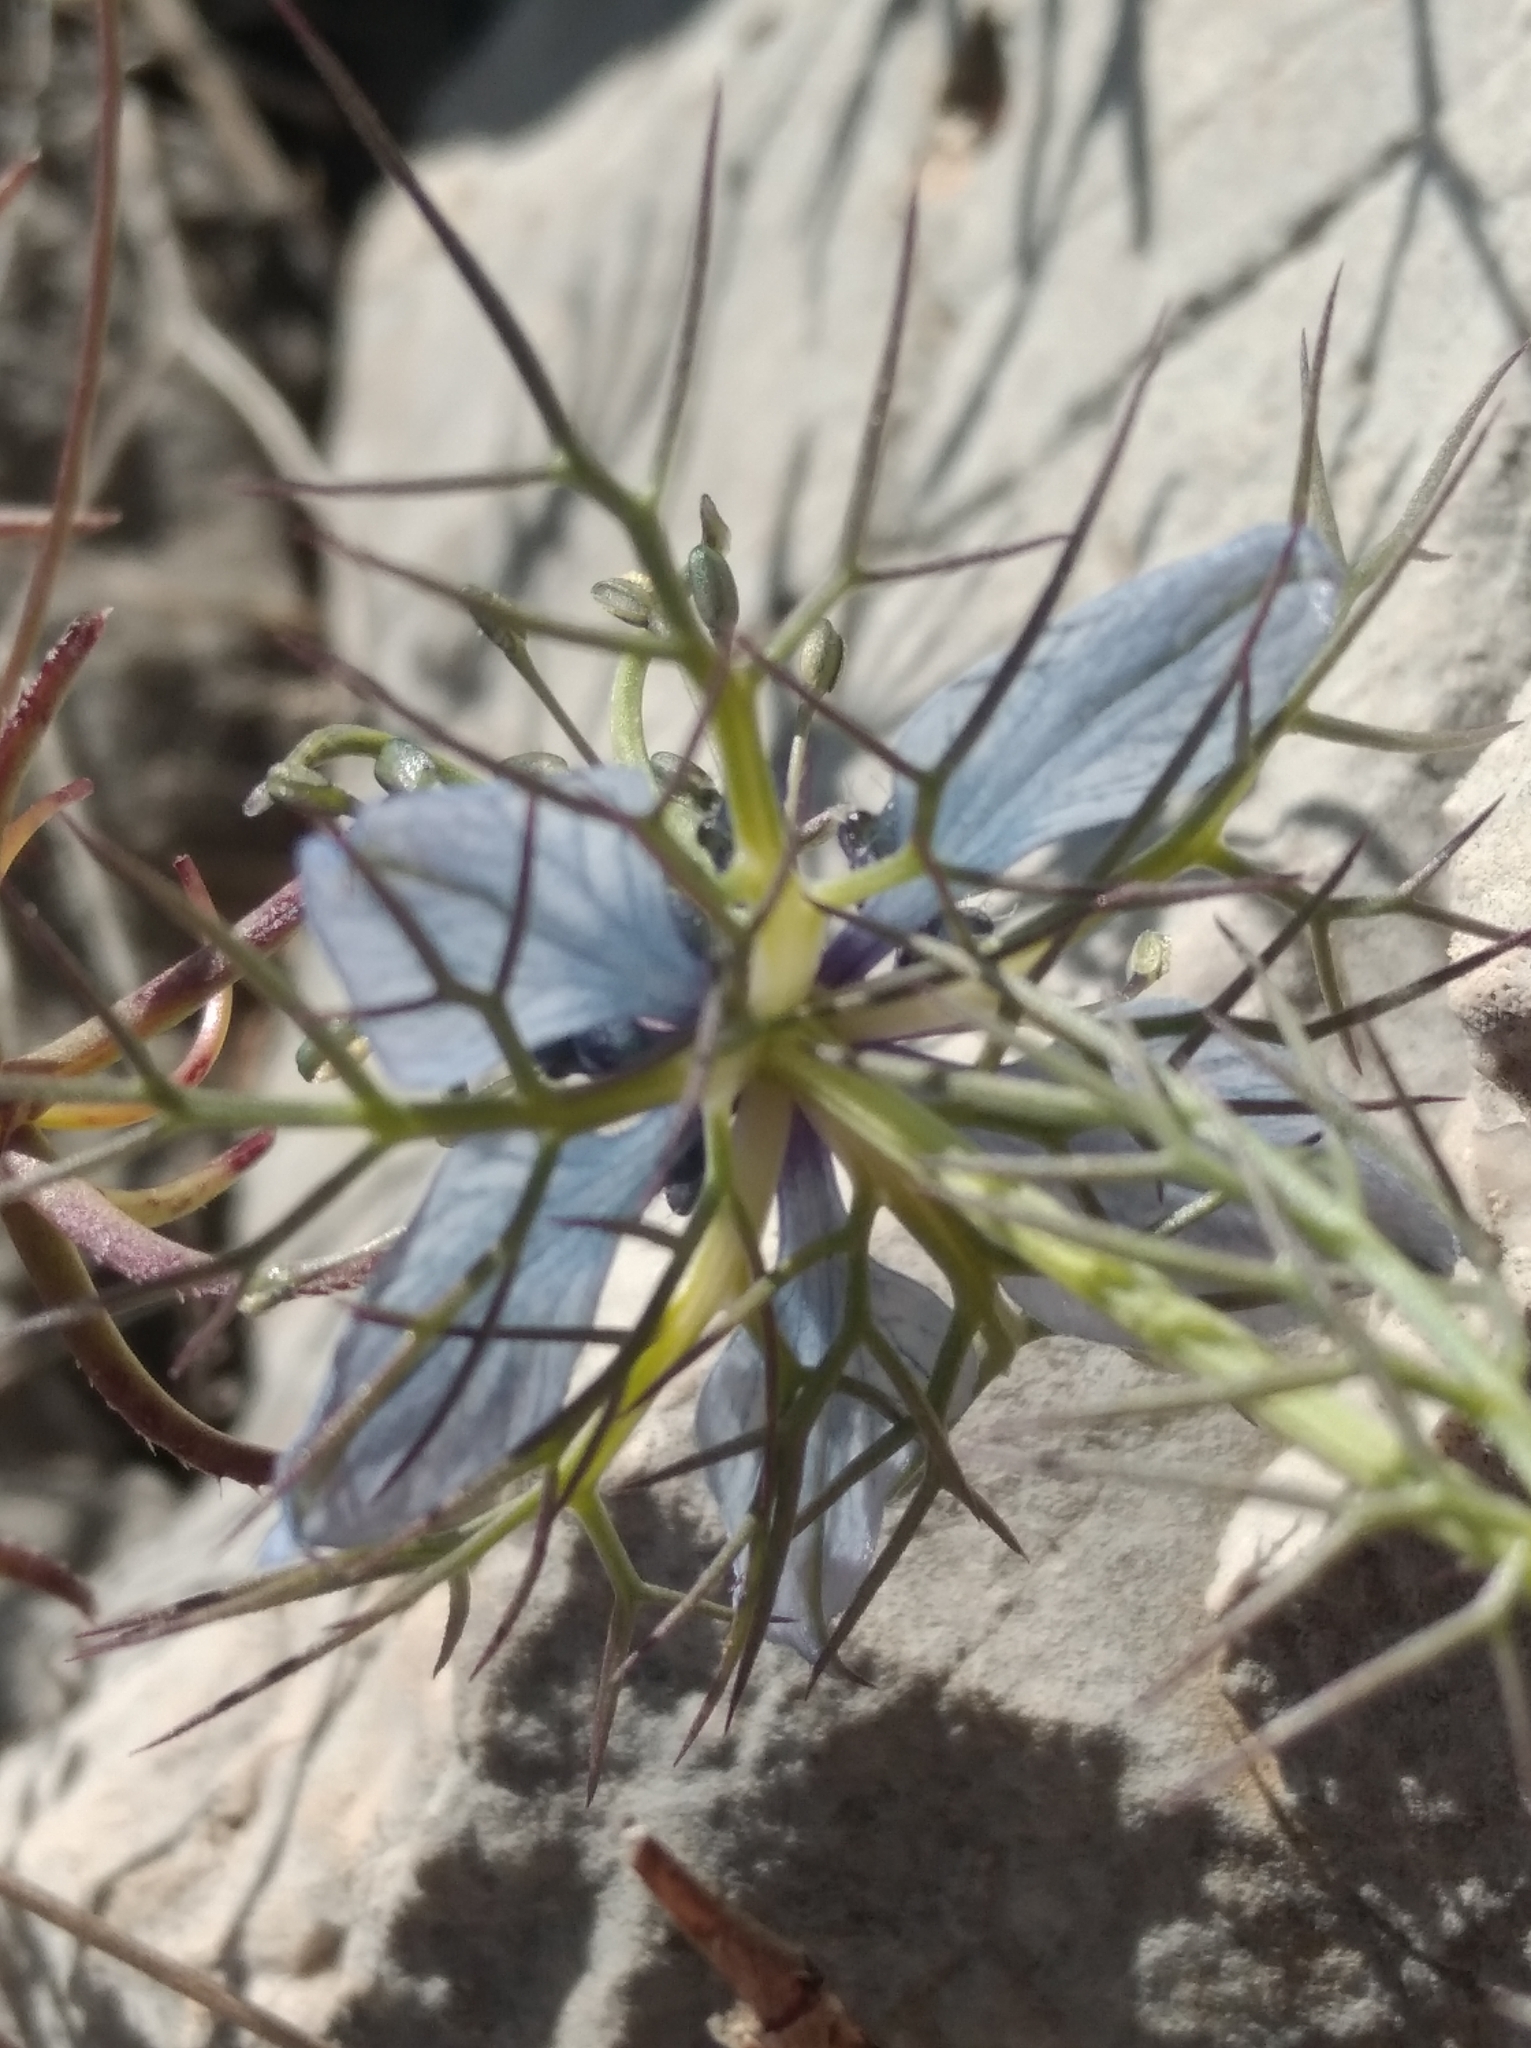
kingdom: Plantae
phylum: Tracheophyta
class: Magnoliopsida
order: Ranunculales
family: Ranunculaceae
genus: Nigella
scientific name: Nigella damascena
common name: Love-in-a-mist
